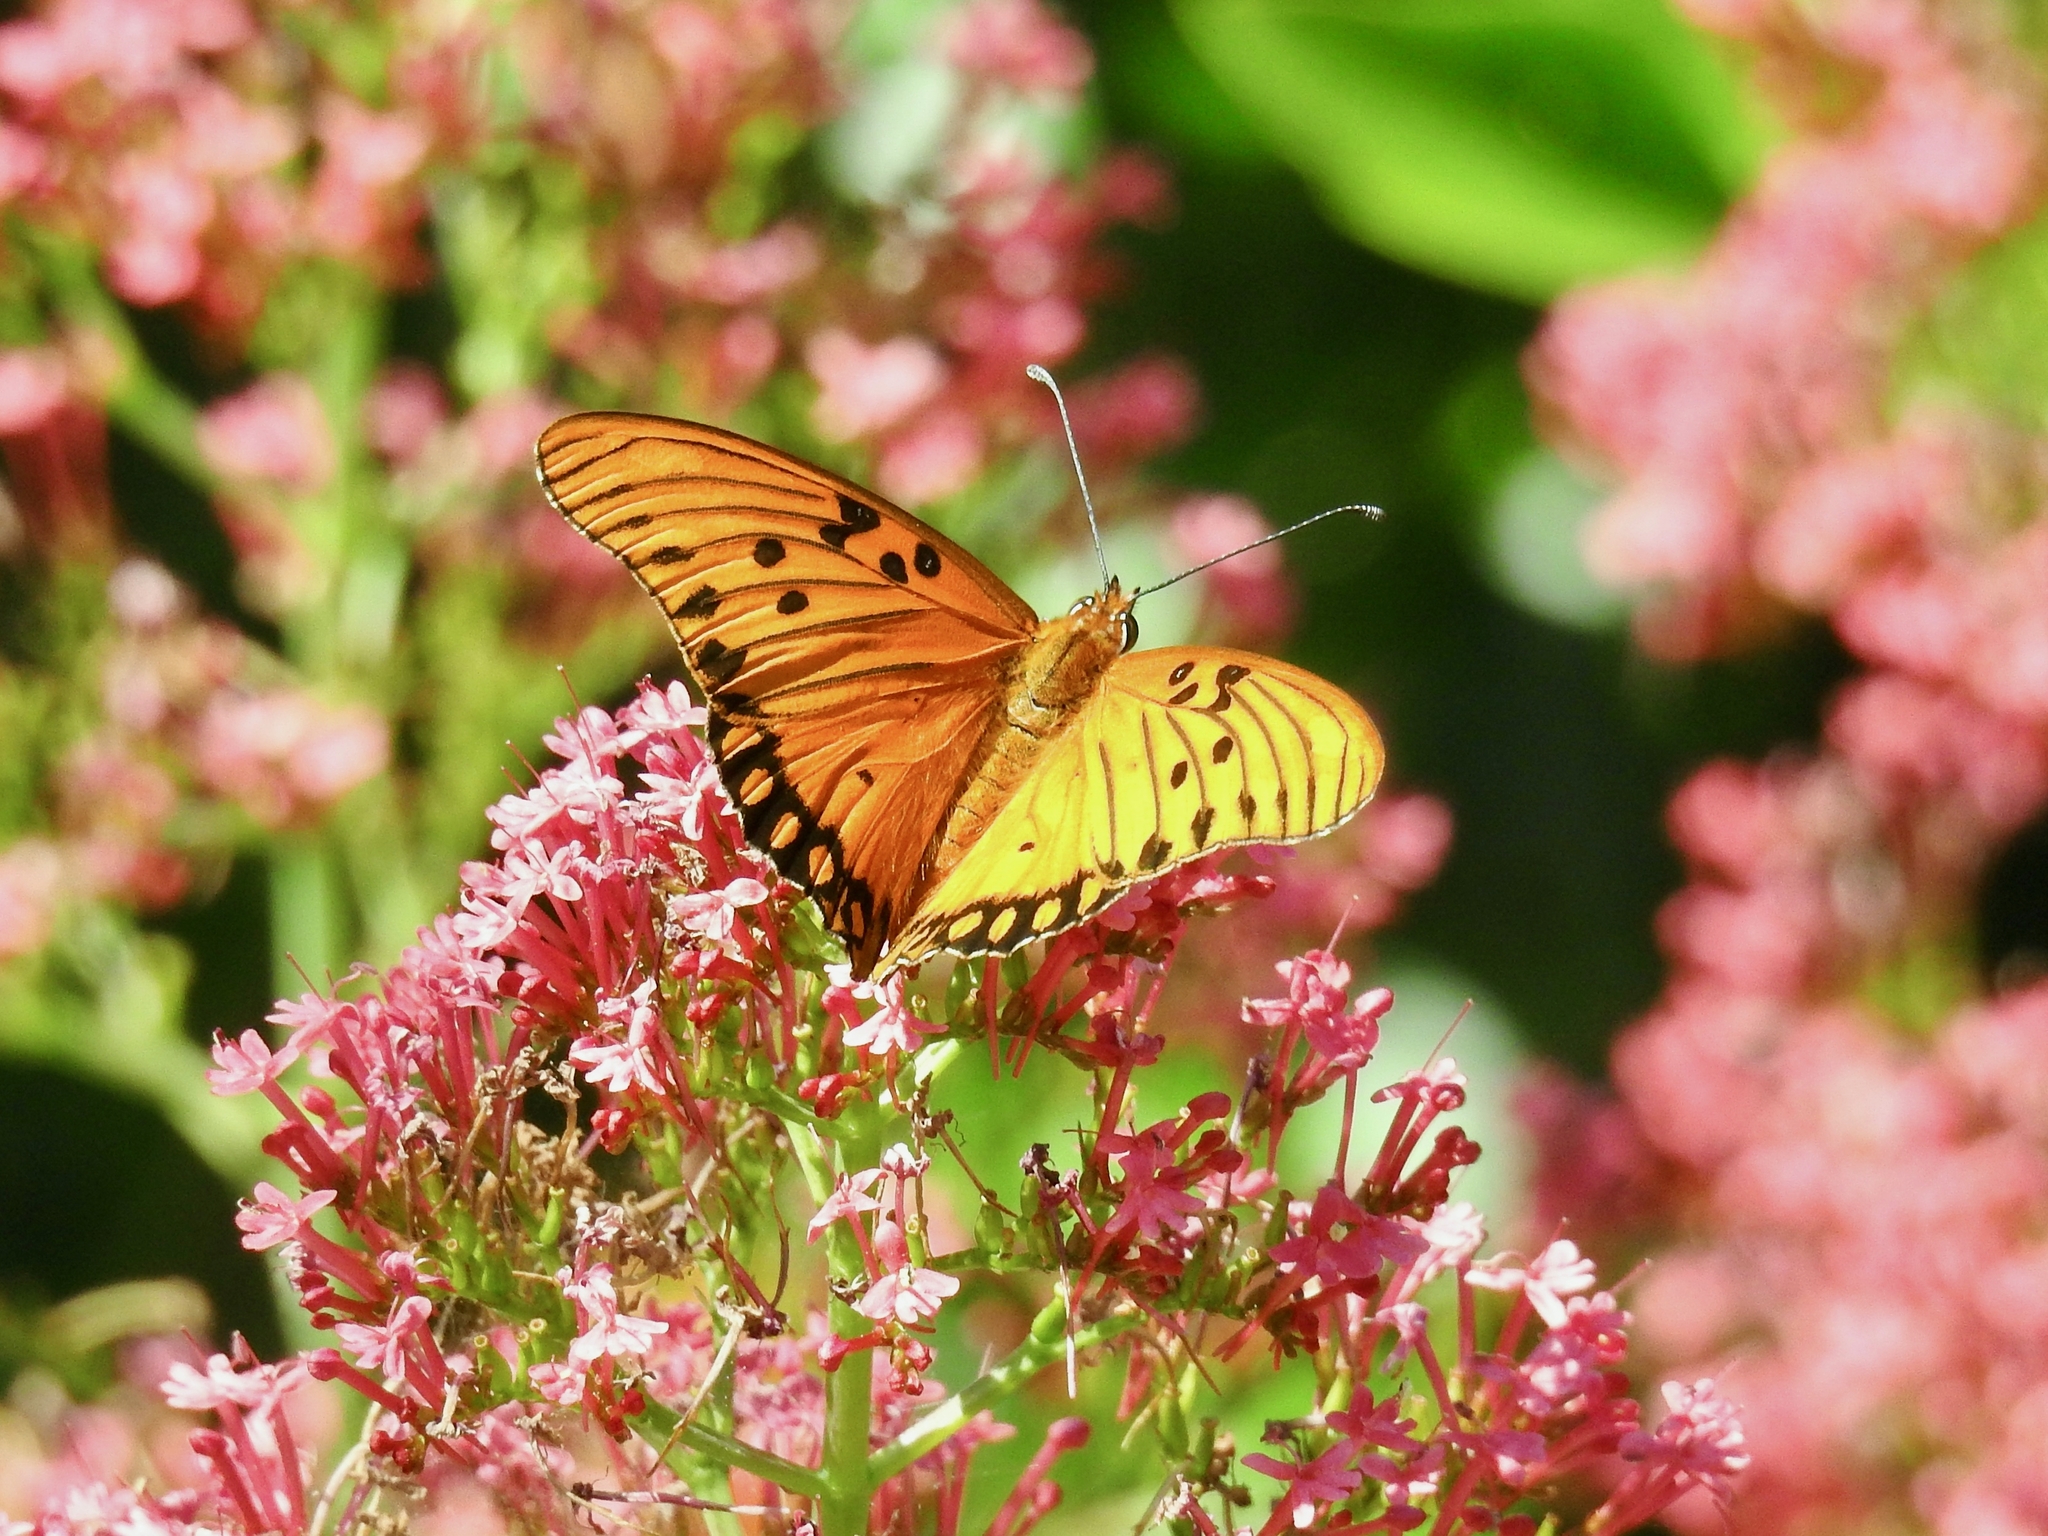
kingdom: Animalia
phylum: Arthropoda
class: Insecta
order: Lepidoptera
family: Nymphalidae
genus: Dione
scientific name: Dione vanillae
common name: Gulf fritillary
